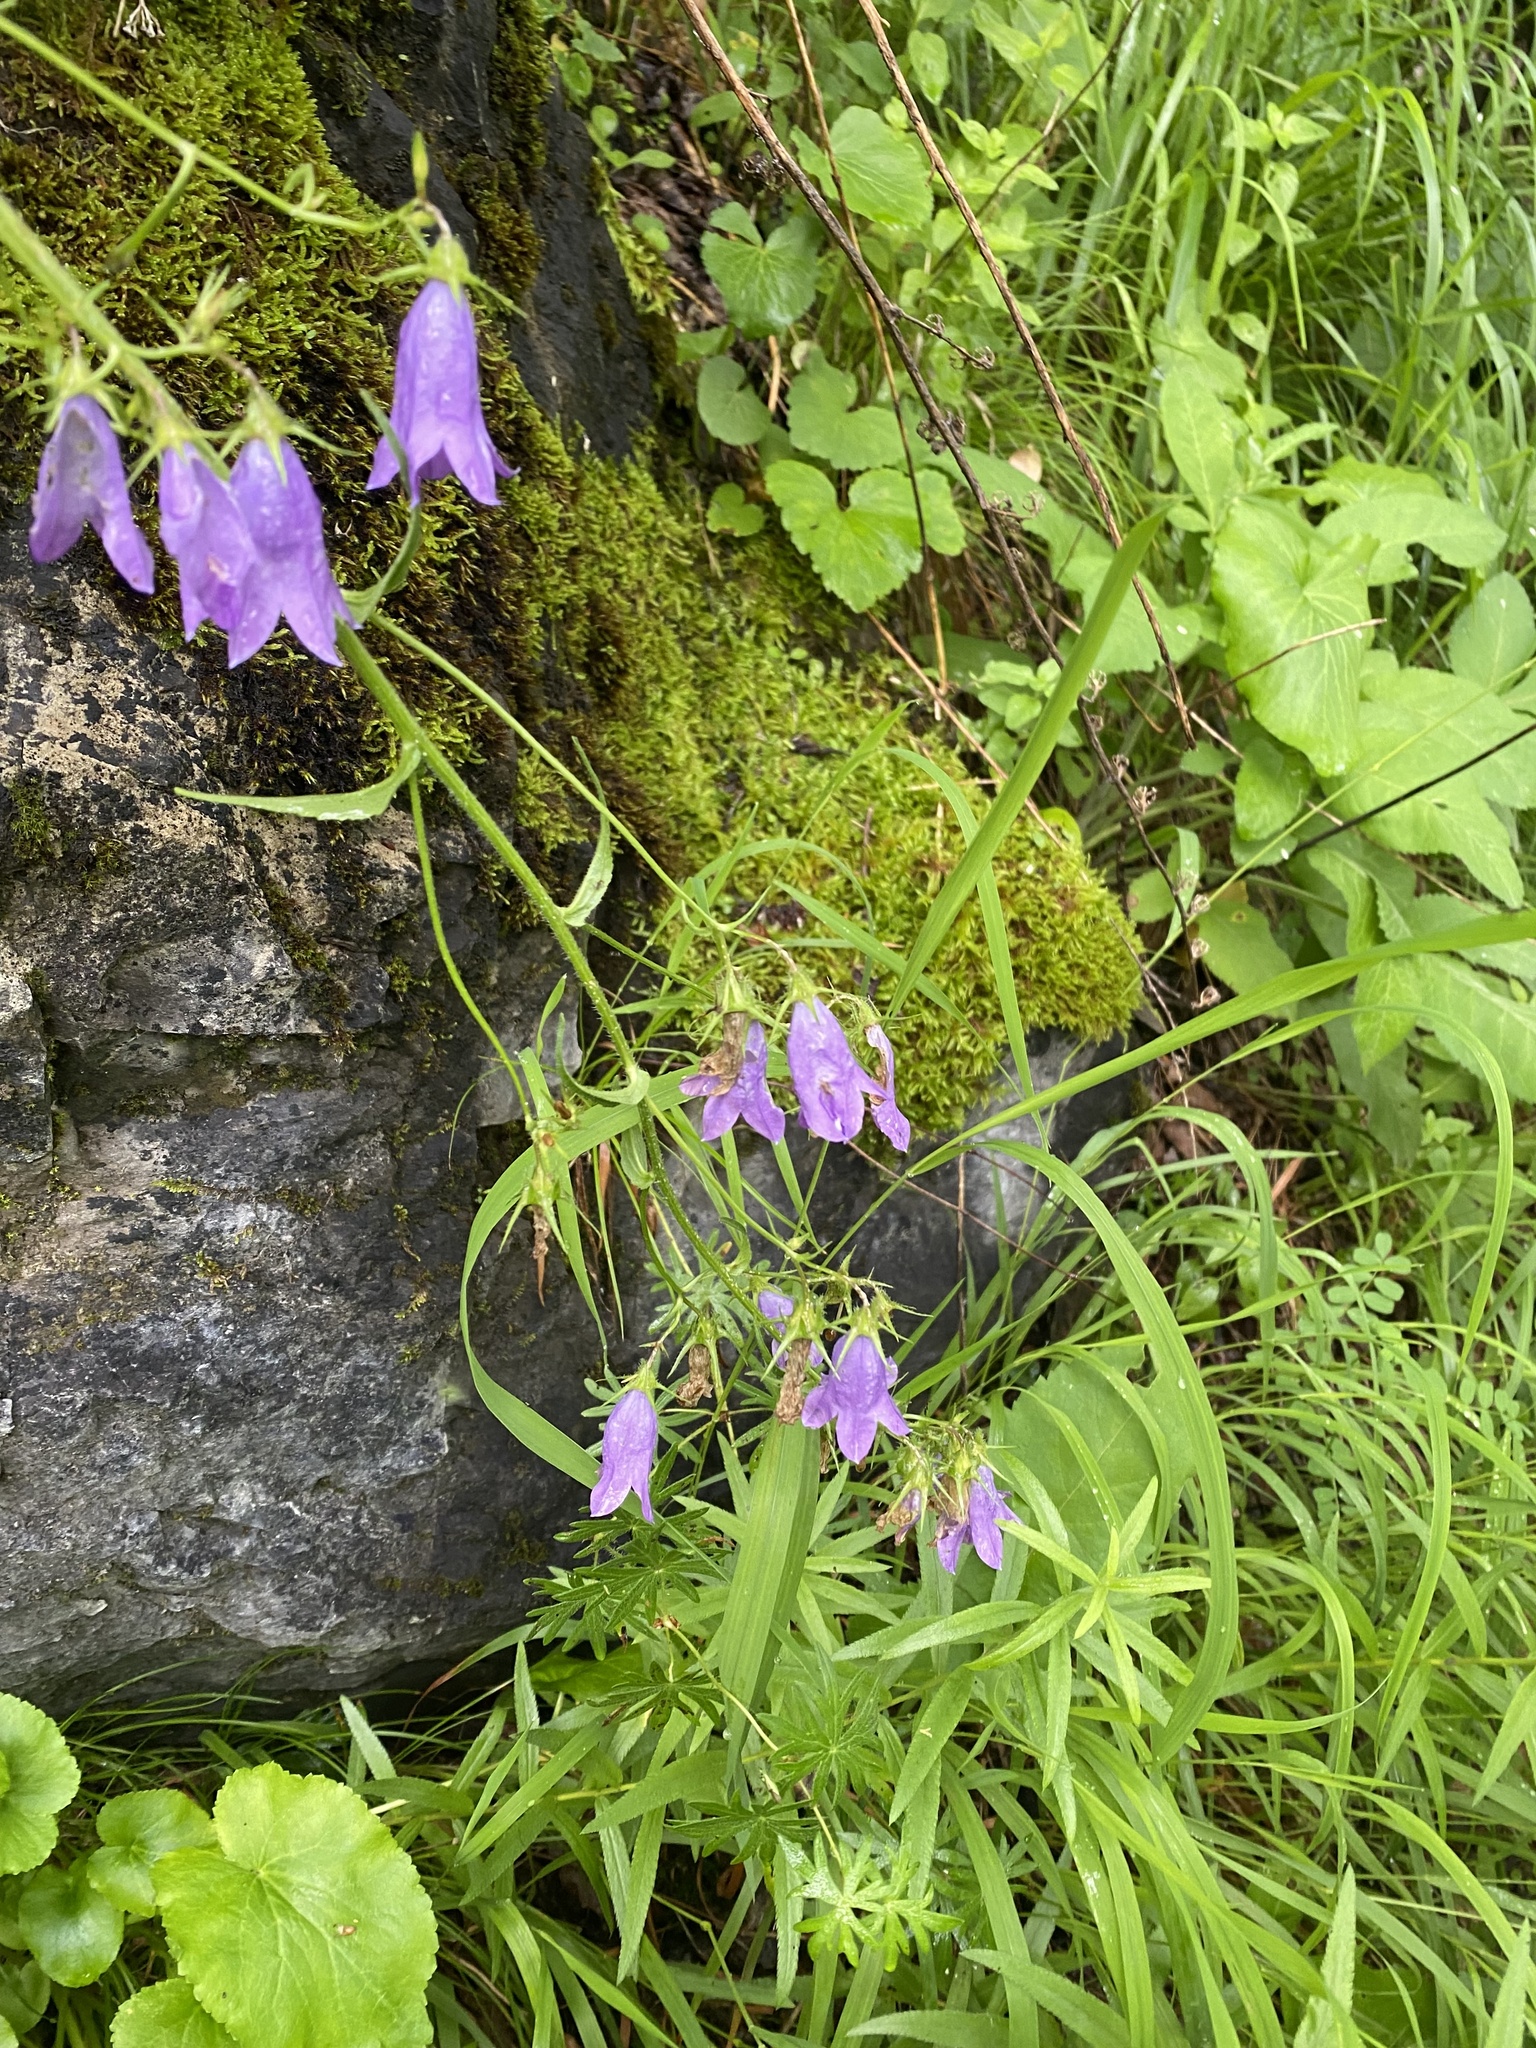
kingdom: Plantae
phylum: Tracheophyta
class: Magnoliopsida
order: Asterales
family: Campanulaceae
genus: Campanula
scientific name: Campanula sibirica
